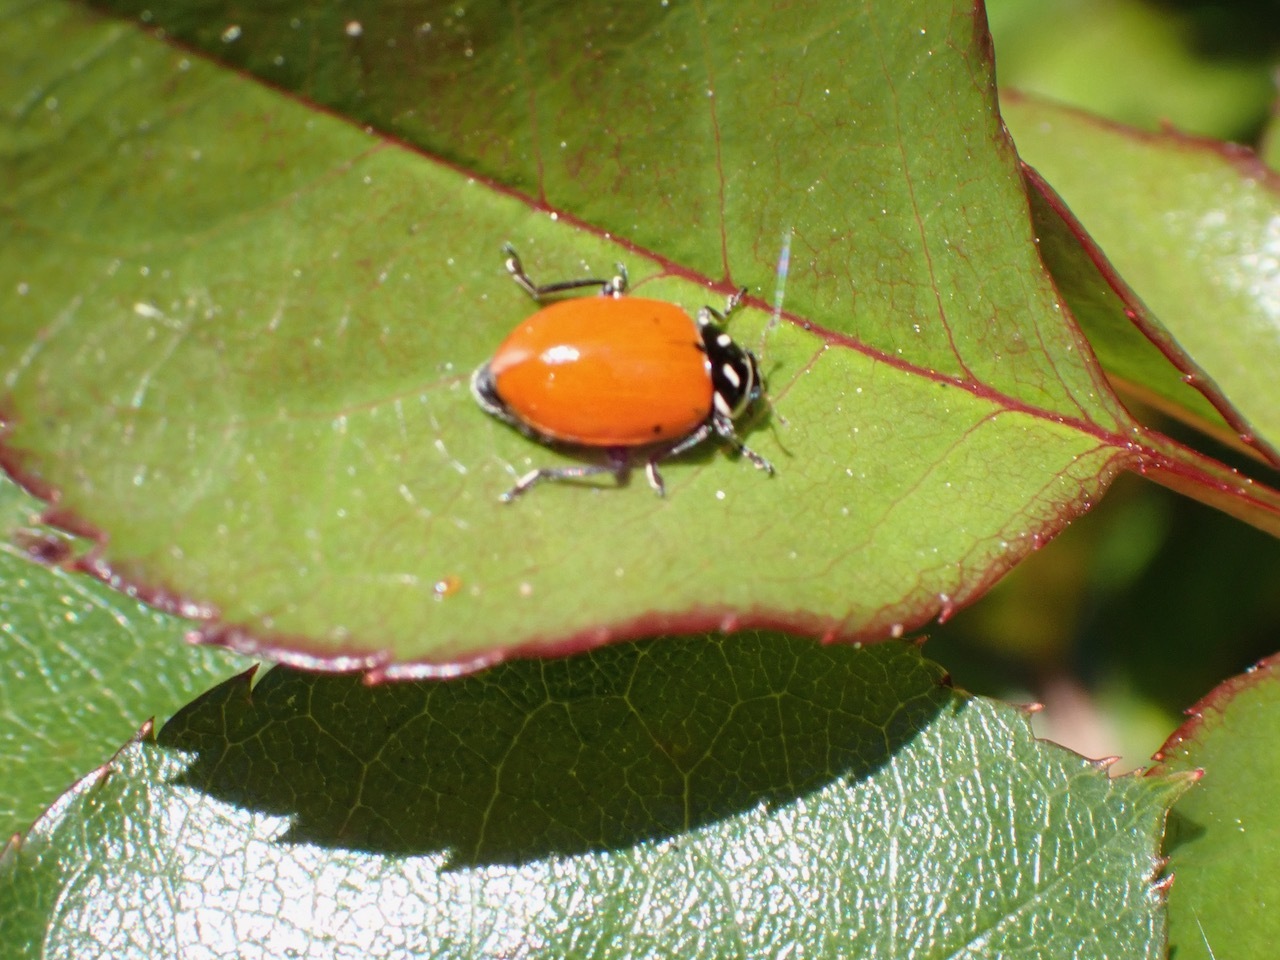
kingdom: Animalia
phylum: Arthropoda
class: Insecta
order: Coleoptera
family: Coccinellidae
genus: Hippodamia
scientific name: Hippodamia convergens
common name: Convergent lady beetle
